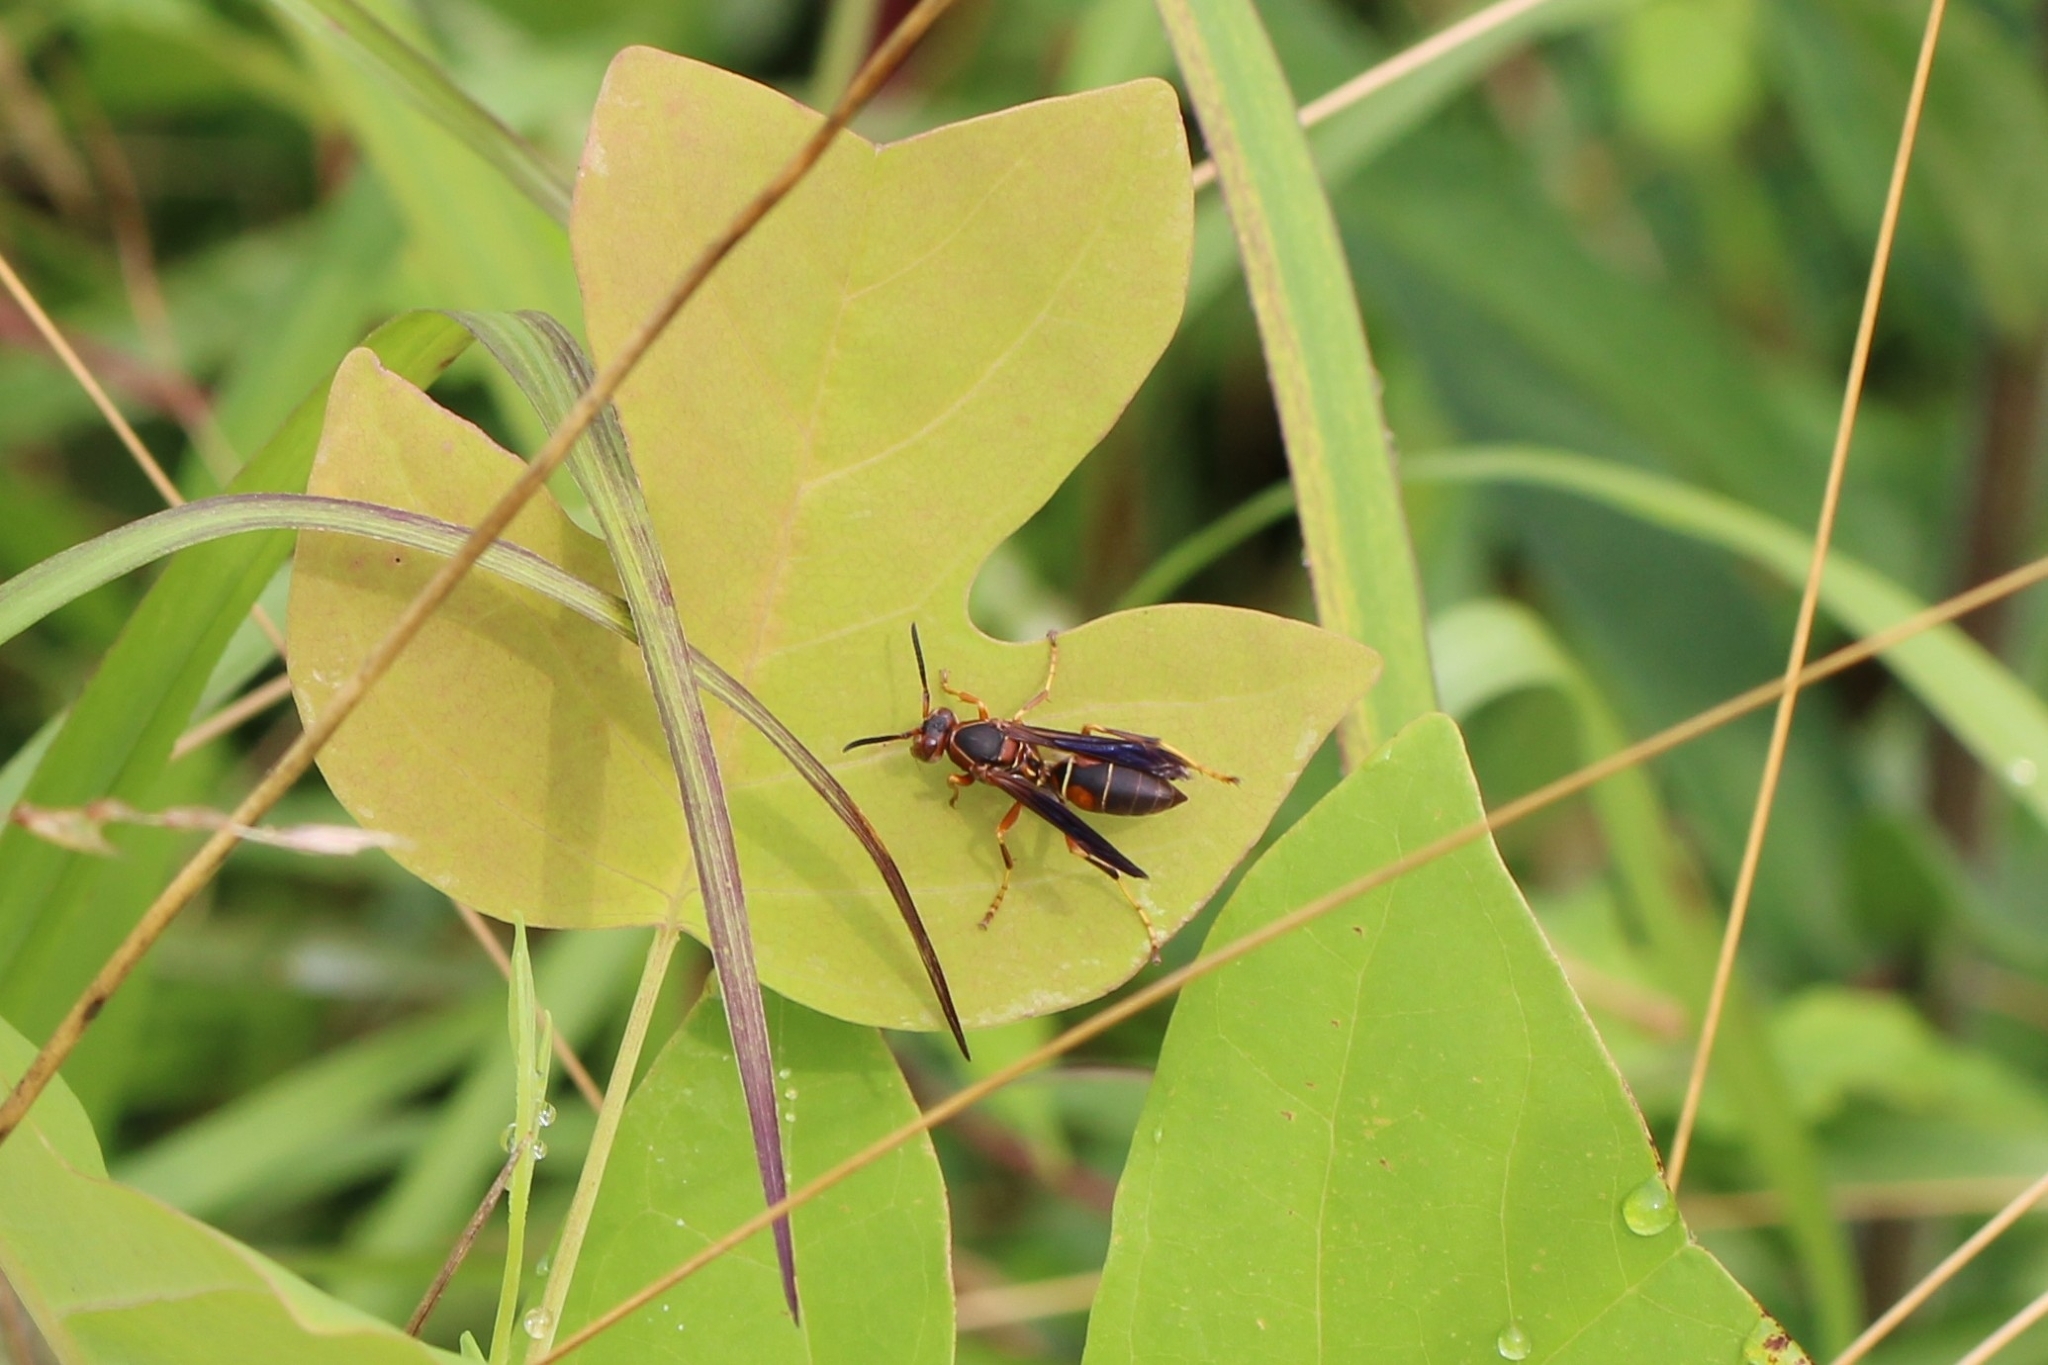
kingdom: Animalia
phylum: Arthropoda
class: Insecta
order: Hymenoptera
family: Eumenidae
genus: Polistes
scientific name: Polistes fuscatus
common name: Dark paper wasp
